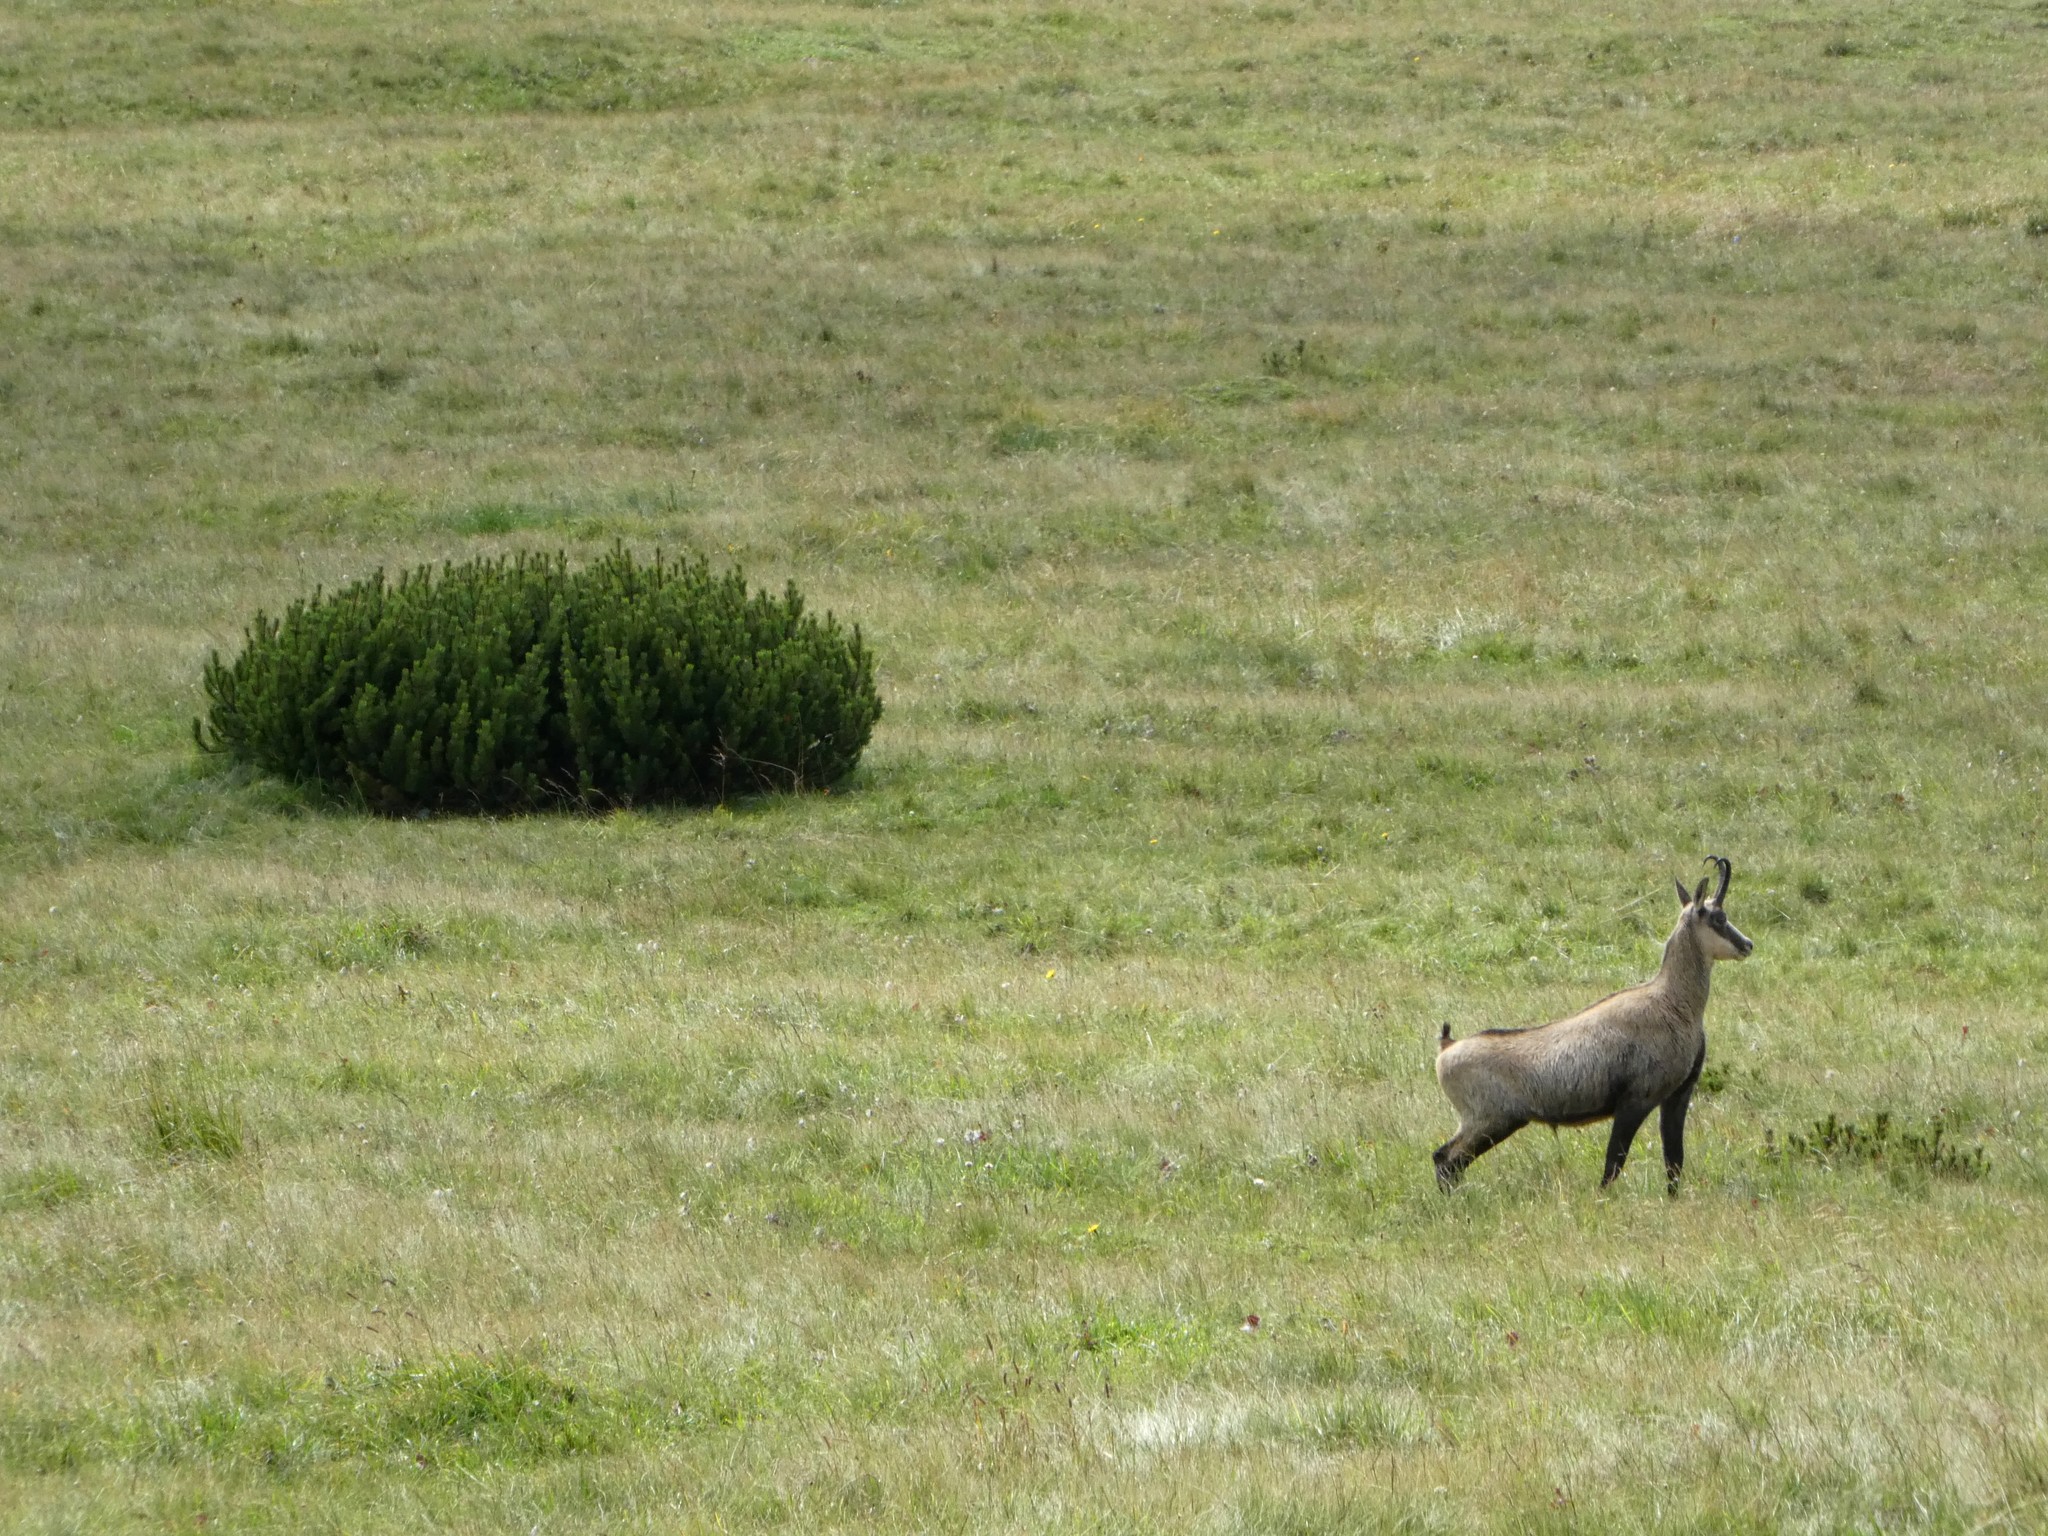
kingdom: Animalia
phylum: Chordata
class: Mammalia
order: Artiodactyla
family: Bovidae
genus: Rupicapra
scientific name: Rupicapra rupicapra
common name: Chamois
